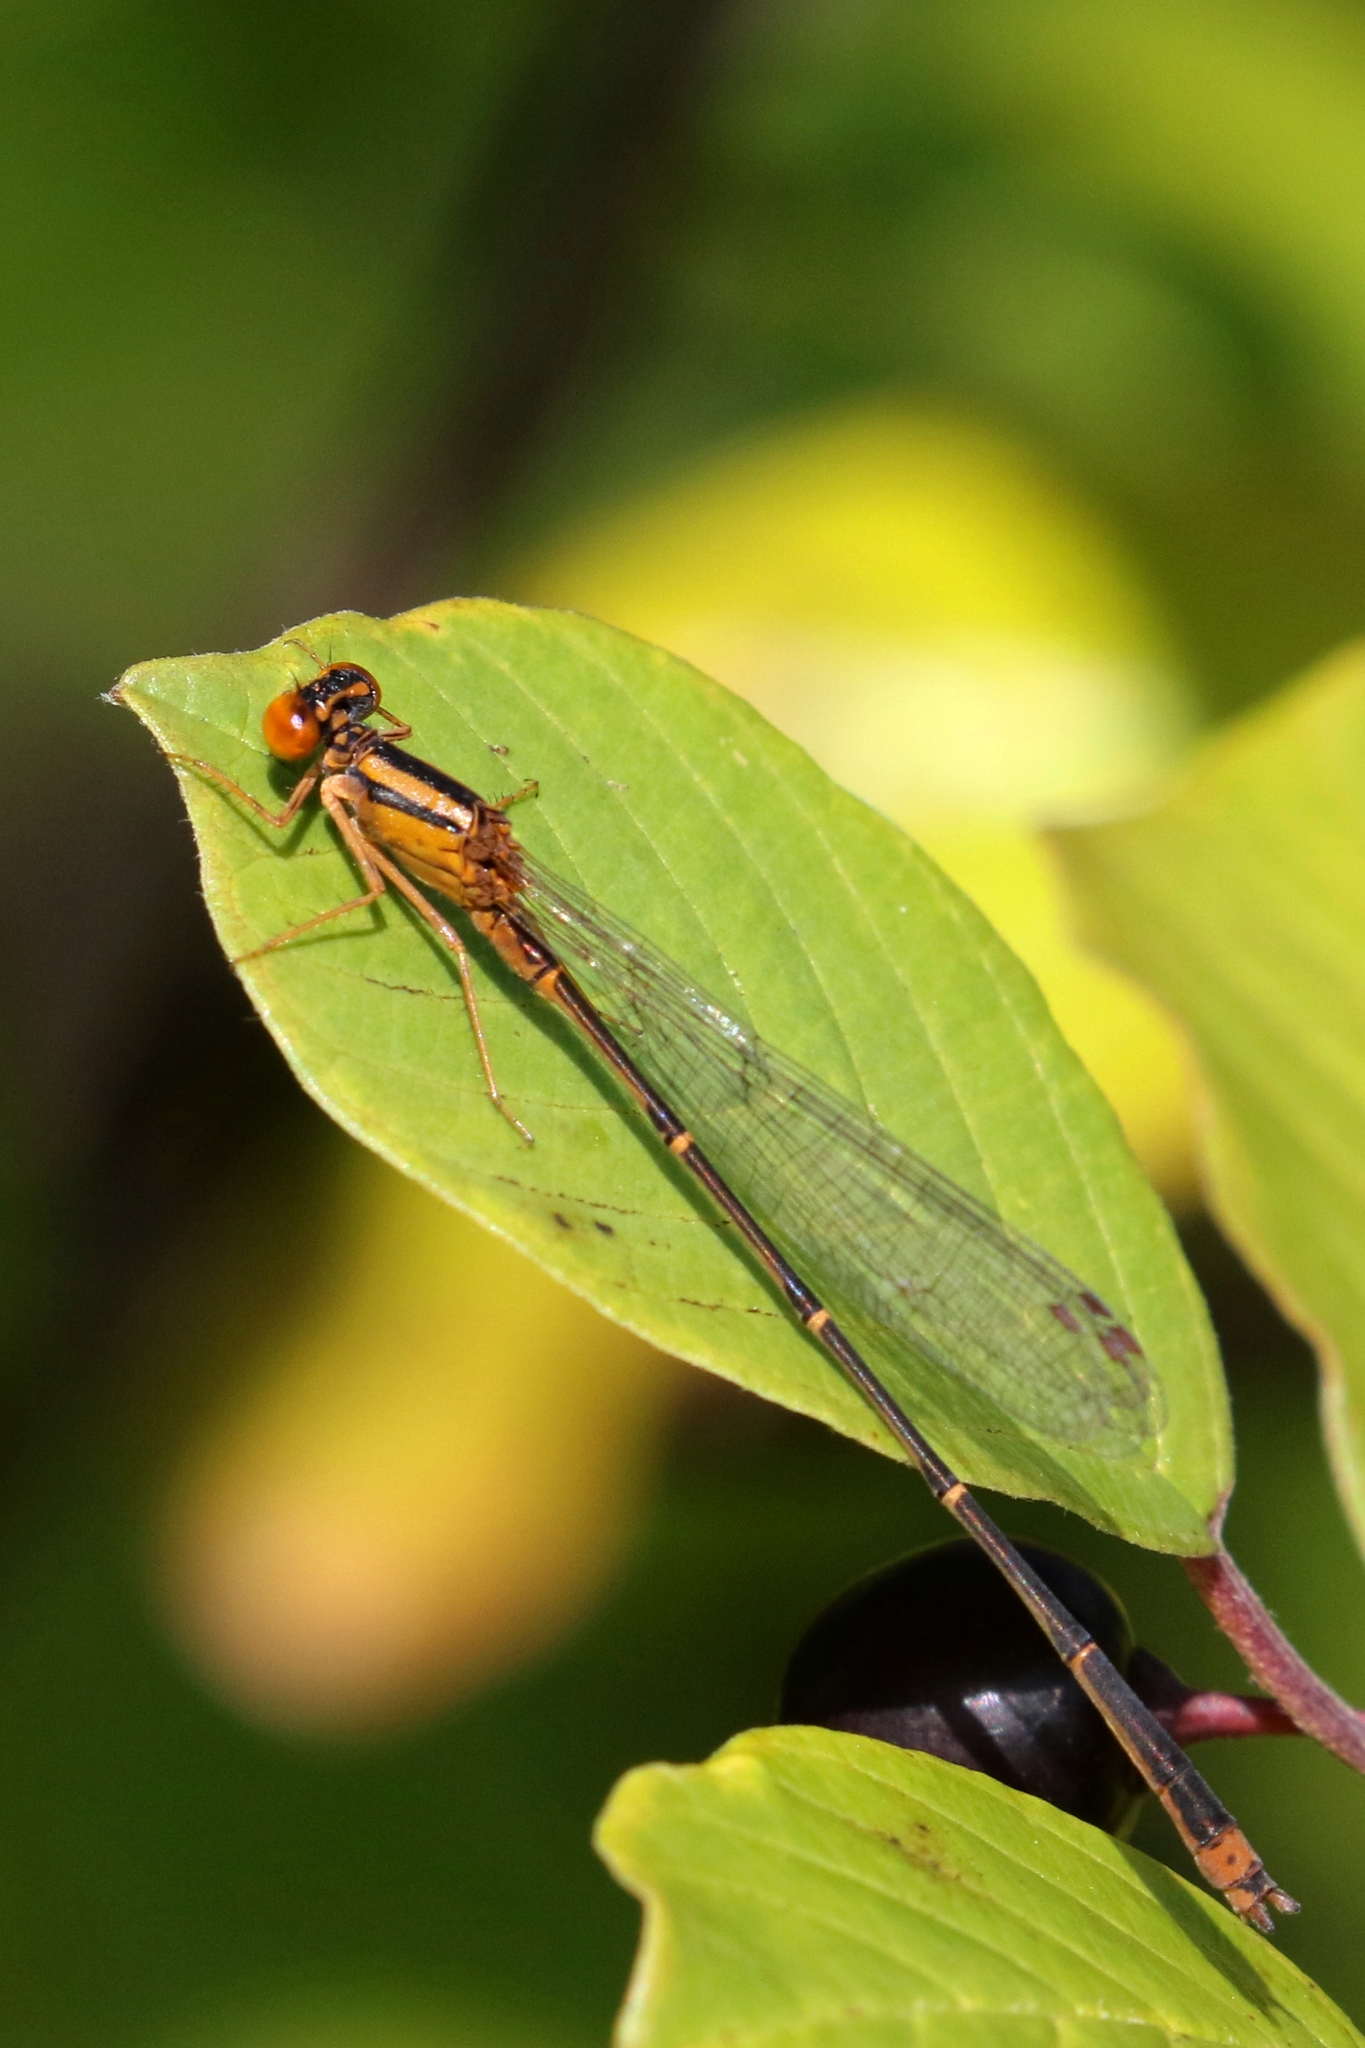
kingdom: Animalia
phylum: Arthropoda
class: Insecta
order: Odonata
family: Coenagrionidae
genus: Enallagma
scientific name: Enallagma signatum
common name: Orange bluet
